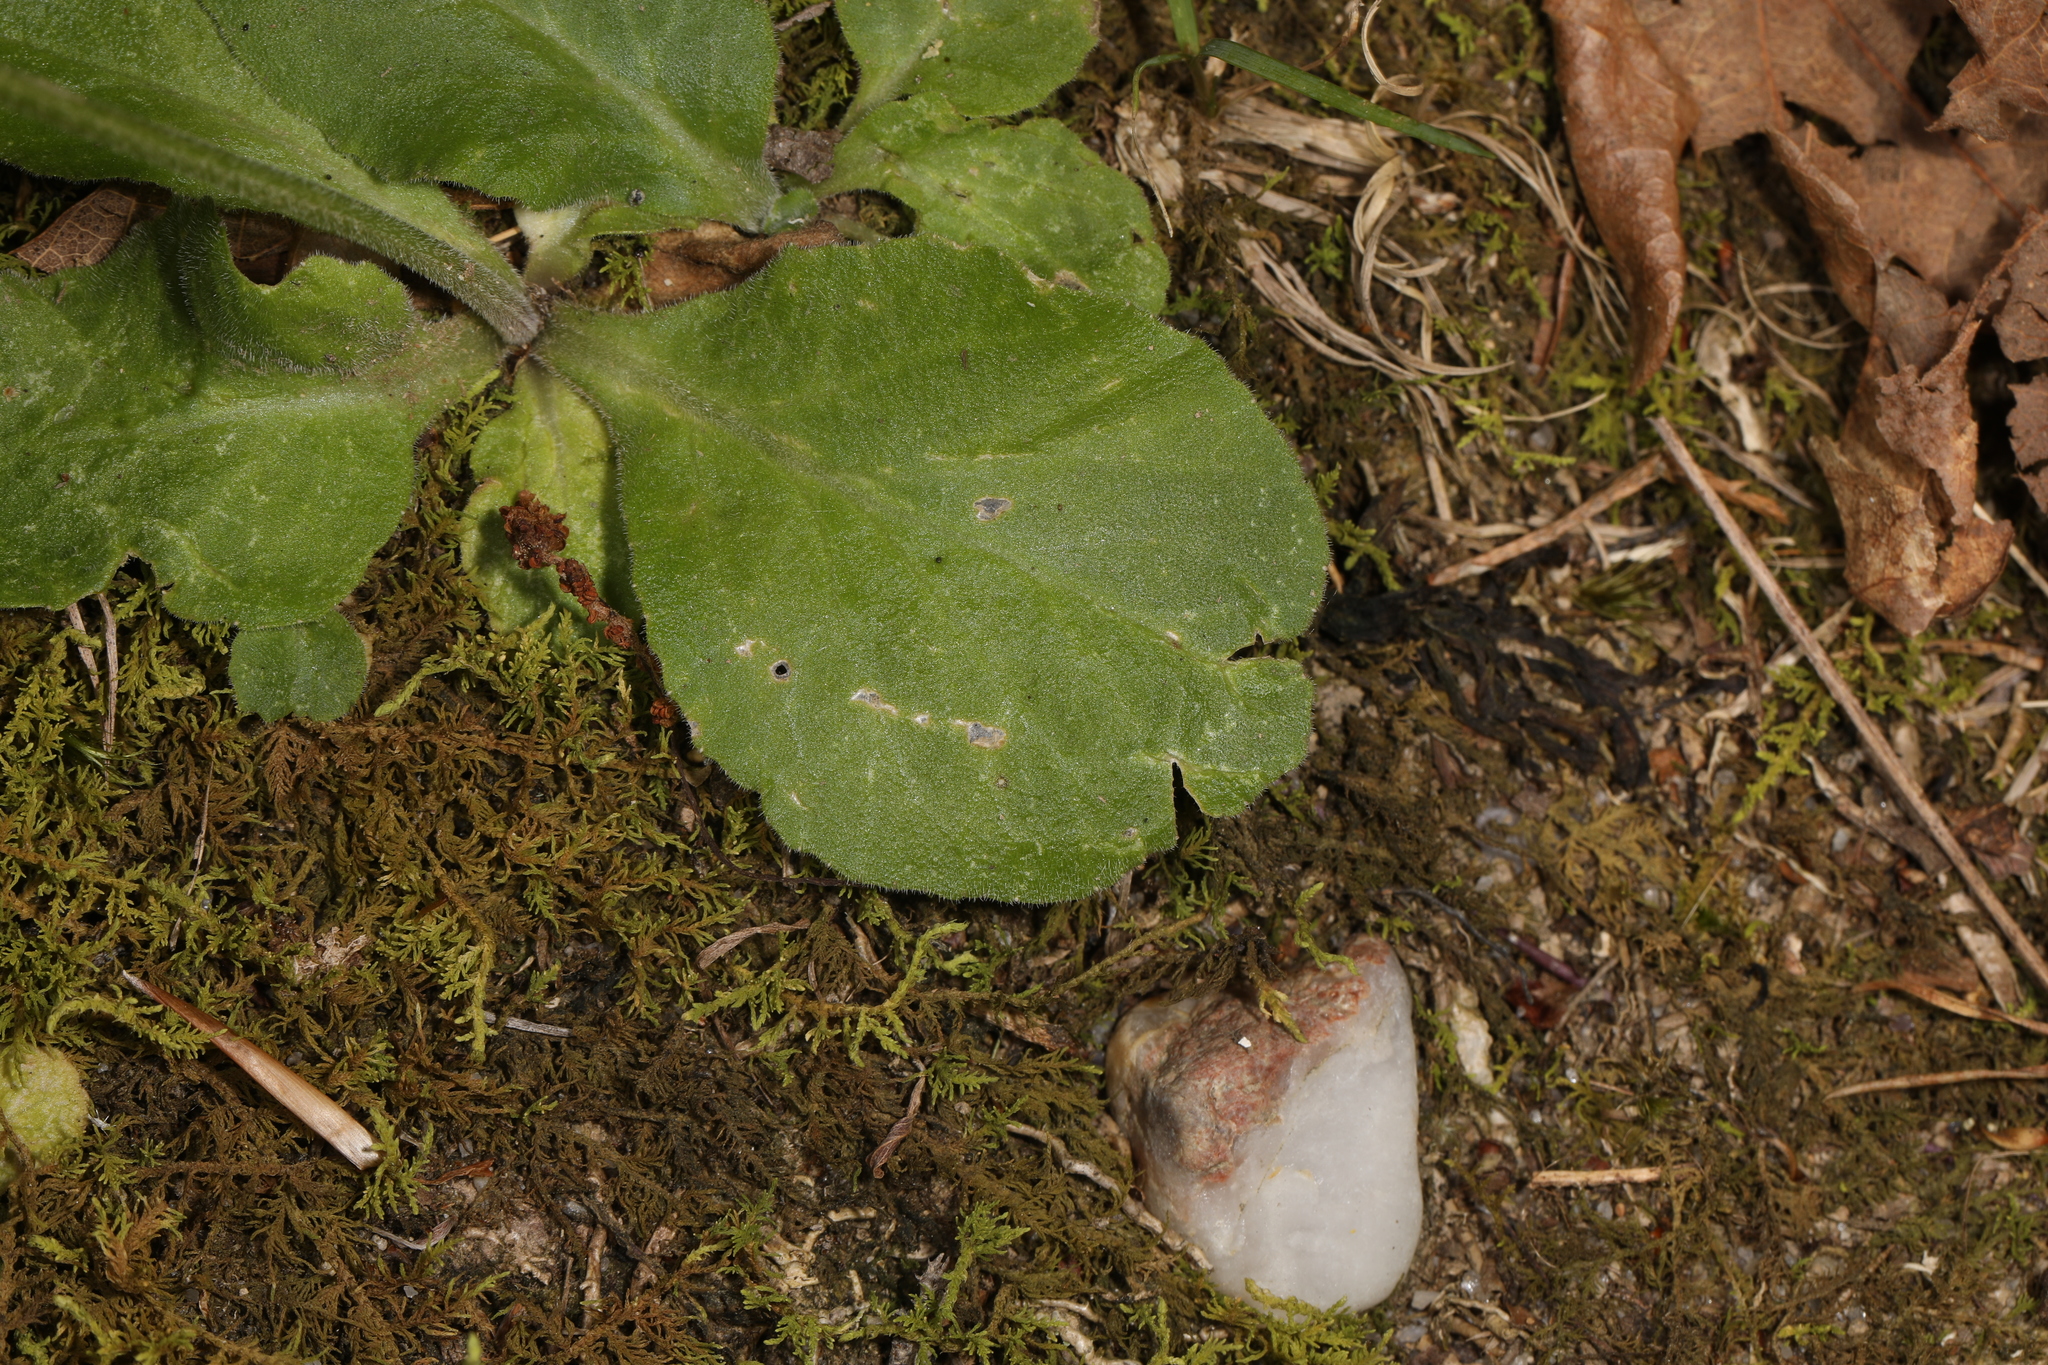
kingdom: Plantae
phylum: Tracheophyta
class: Magnoliopsida
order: Asterales
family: Campanulaceae
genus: Lobelia
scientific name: Lobelia spicata
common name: Pale-spike lobelia
